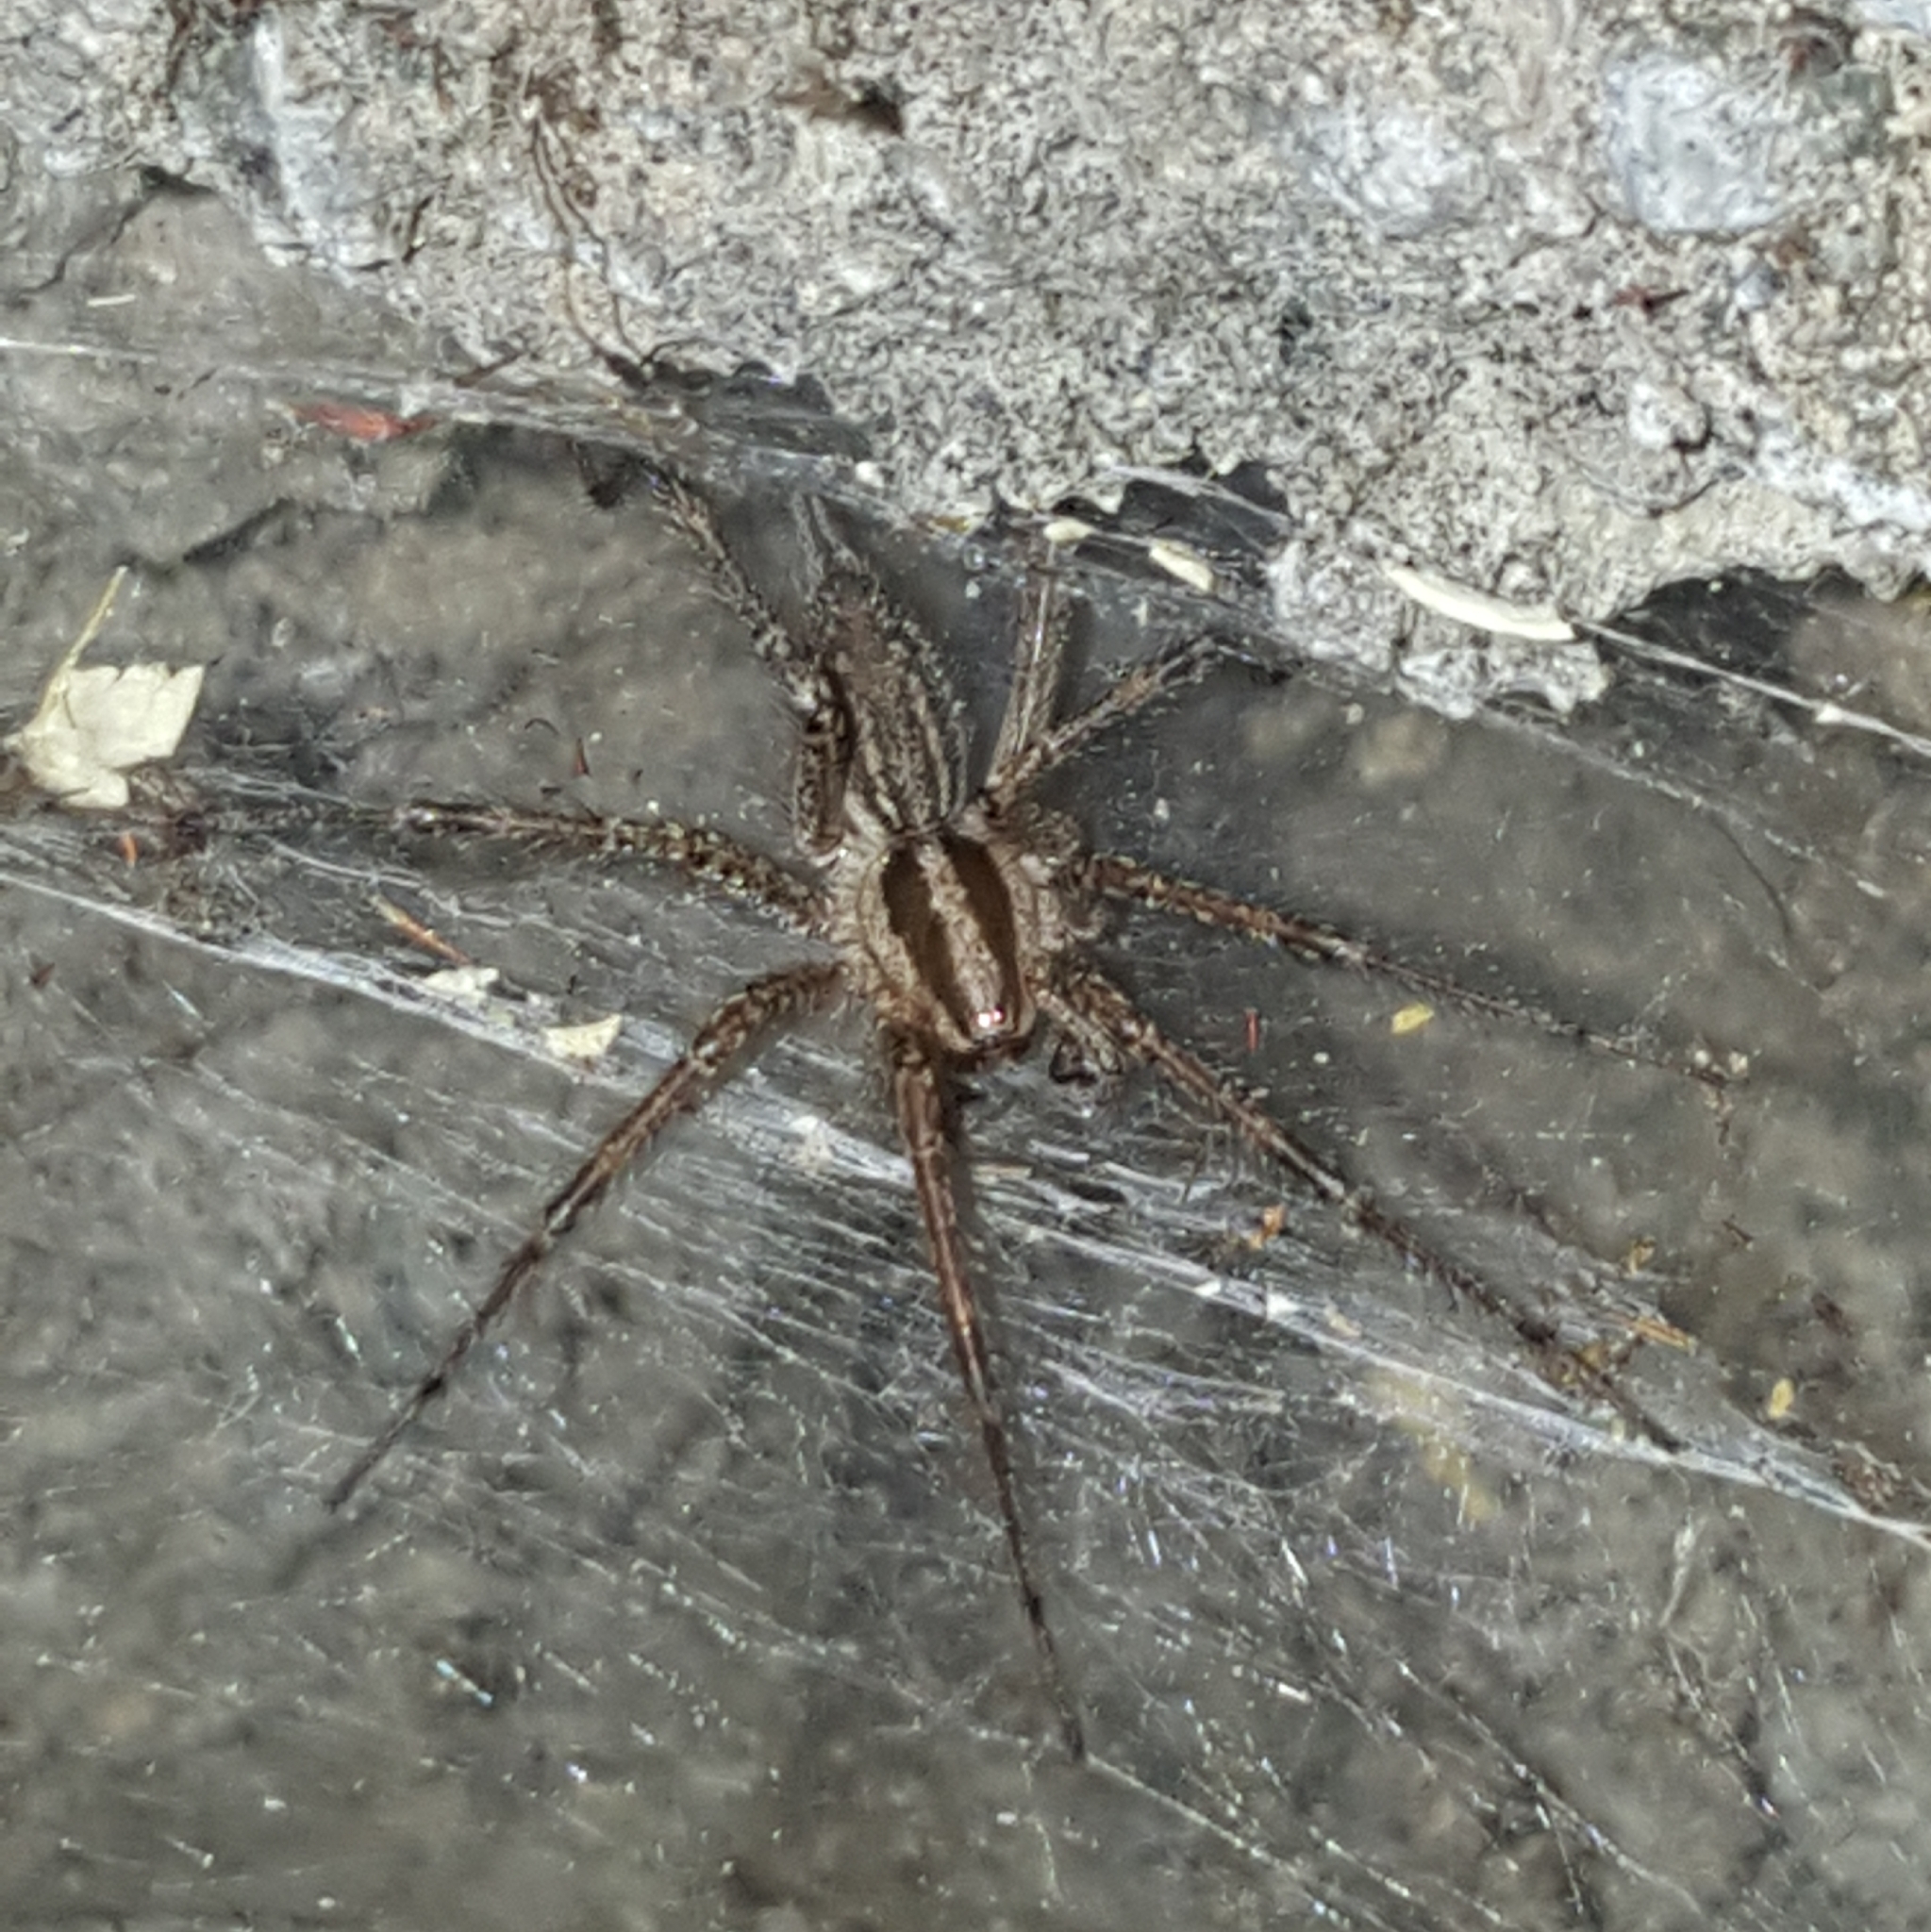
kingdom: Animalia
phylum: Arthropoda
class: Arachnida
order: Araneae
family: Agelenidae
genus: Agelenopsis
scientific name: Agelenopsis
